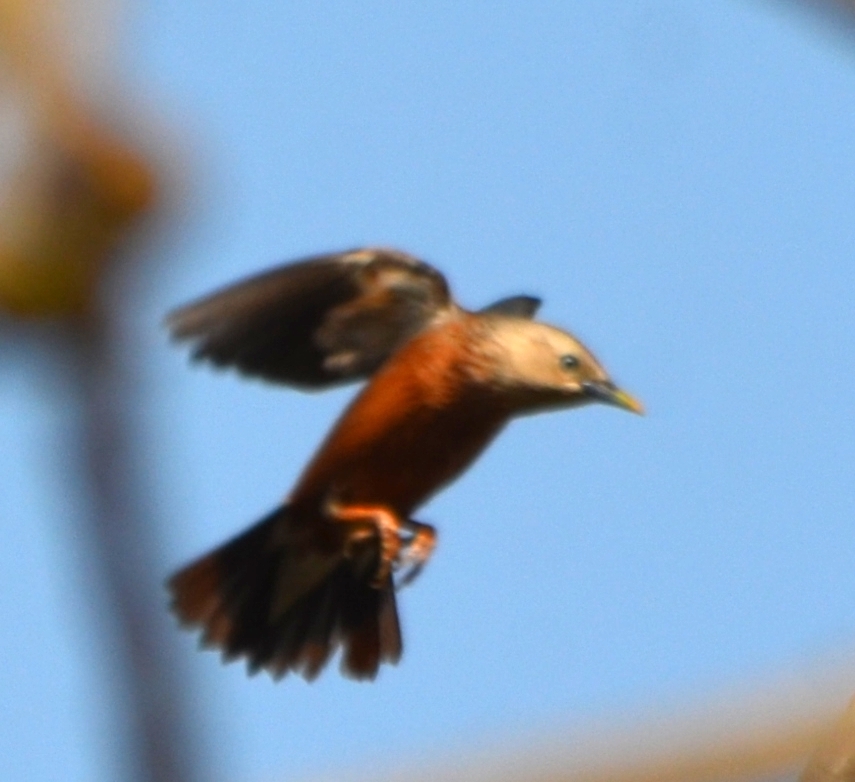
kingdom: Animalia
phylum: Chordata
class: Aves
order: Passeriformes
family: Sturnidae
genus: Sturnia
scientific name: Sturnia malabarica
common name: Chestnut-tailed starling
